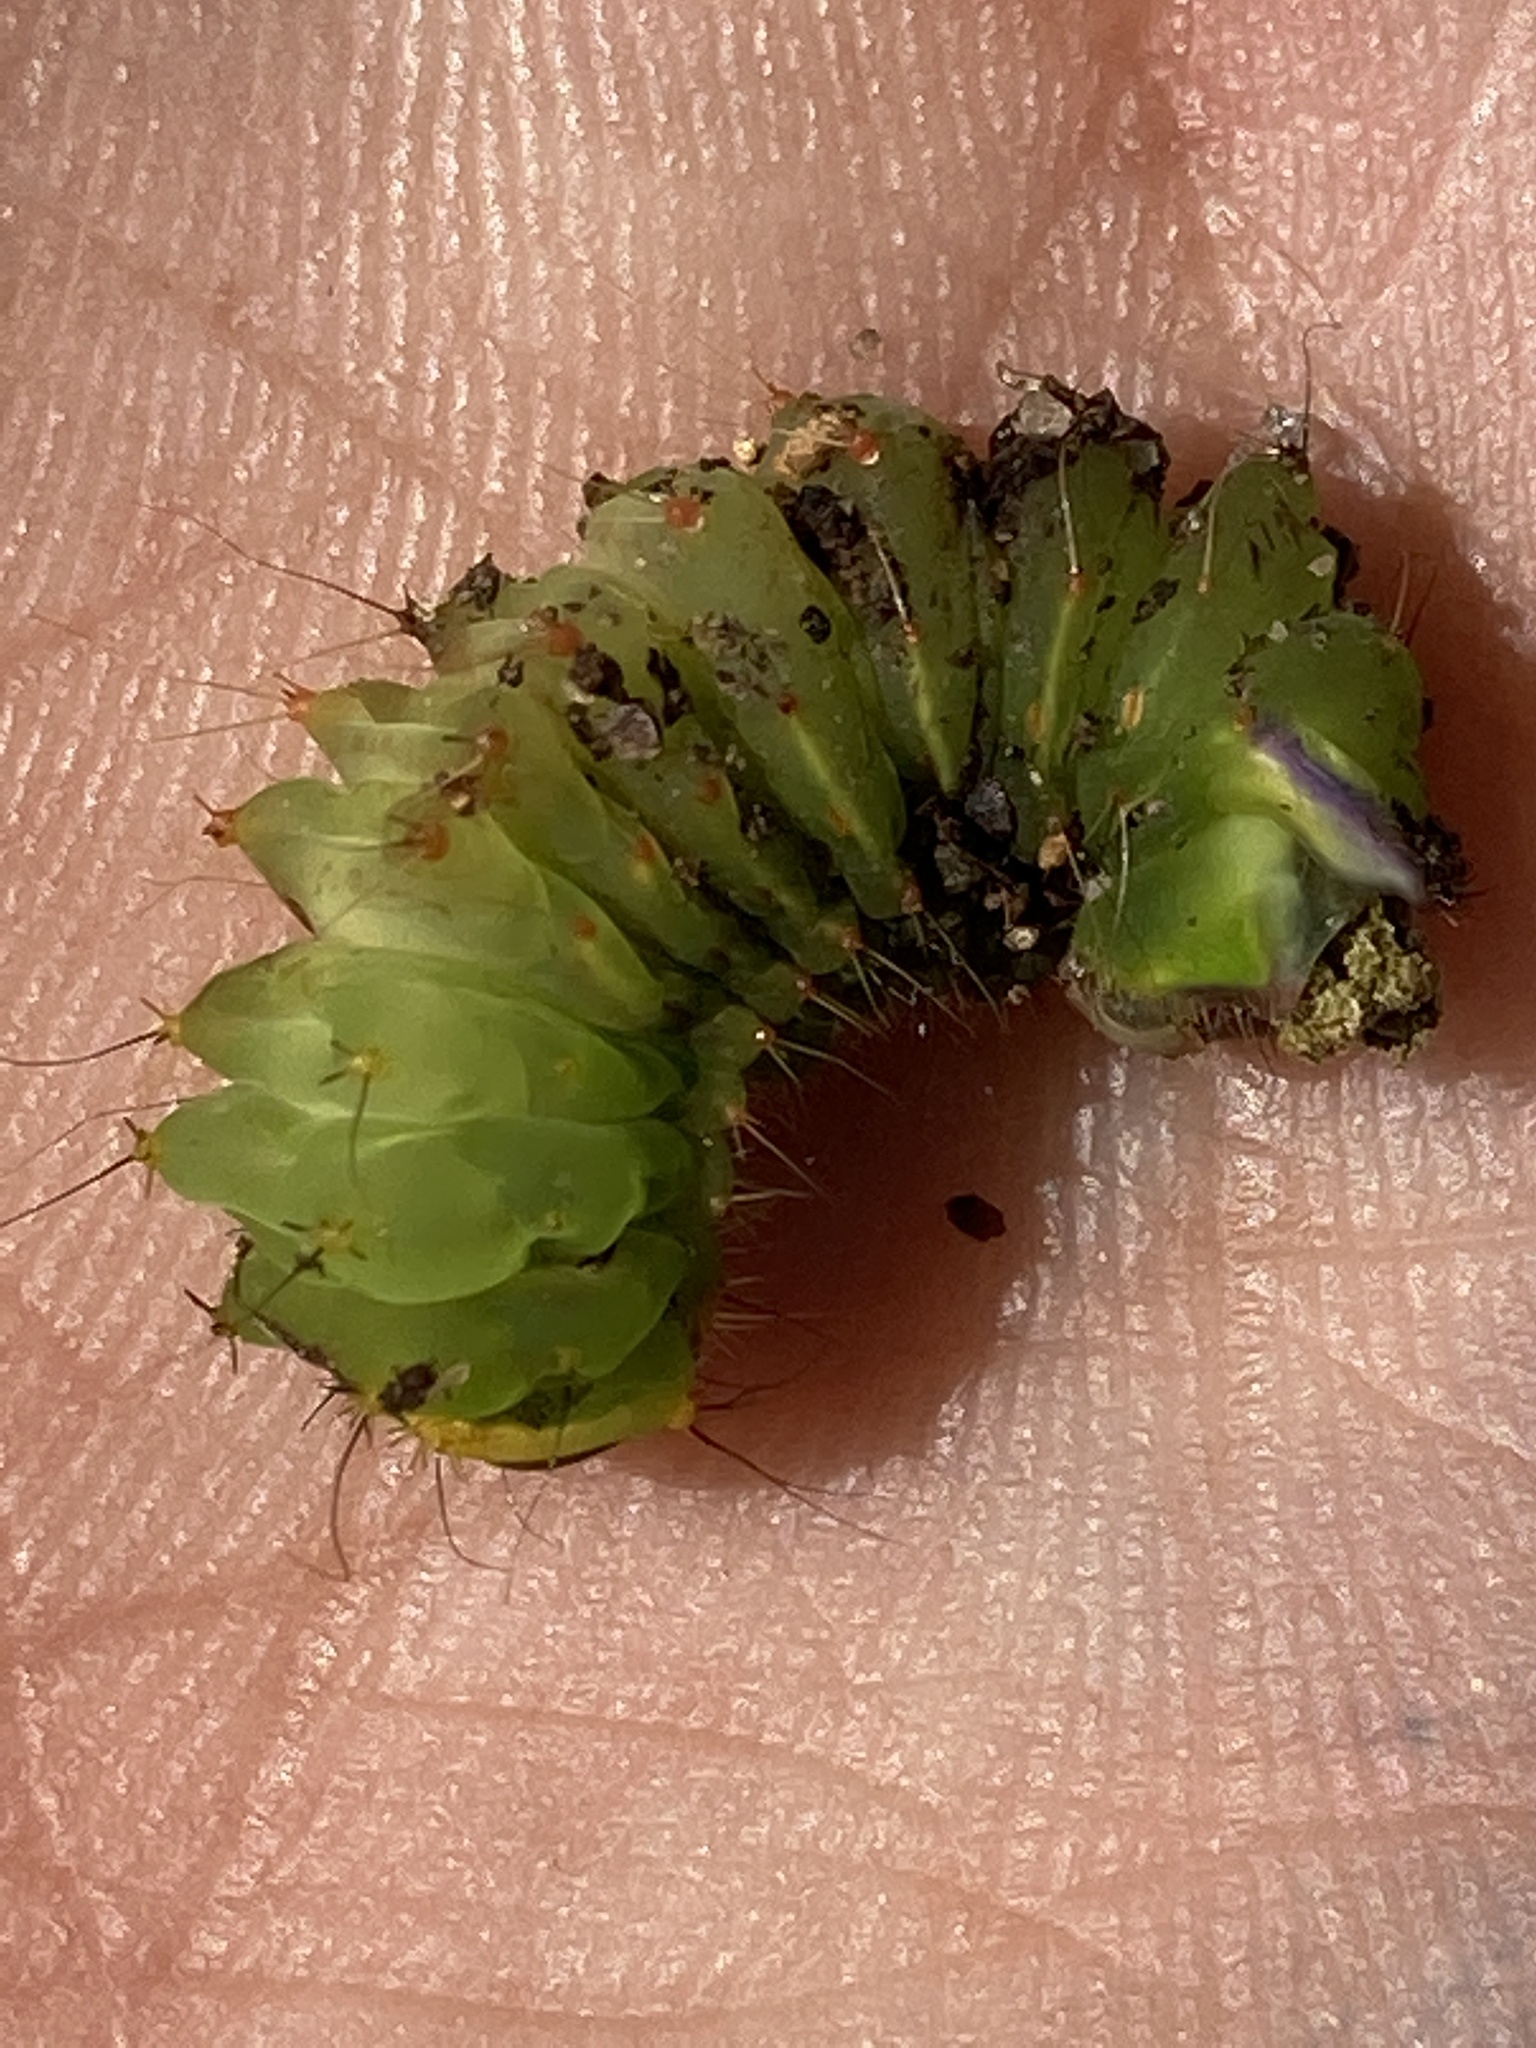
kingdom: Animalia
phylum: Arthropoda
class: Insecta
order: Lepidoptera
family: Saturniidae
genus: Antheraea
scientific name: Antheraea polyphemus
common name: Polyphemus moth
